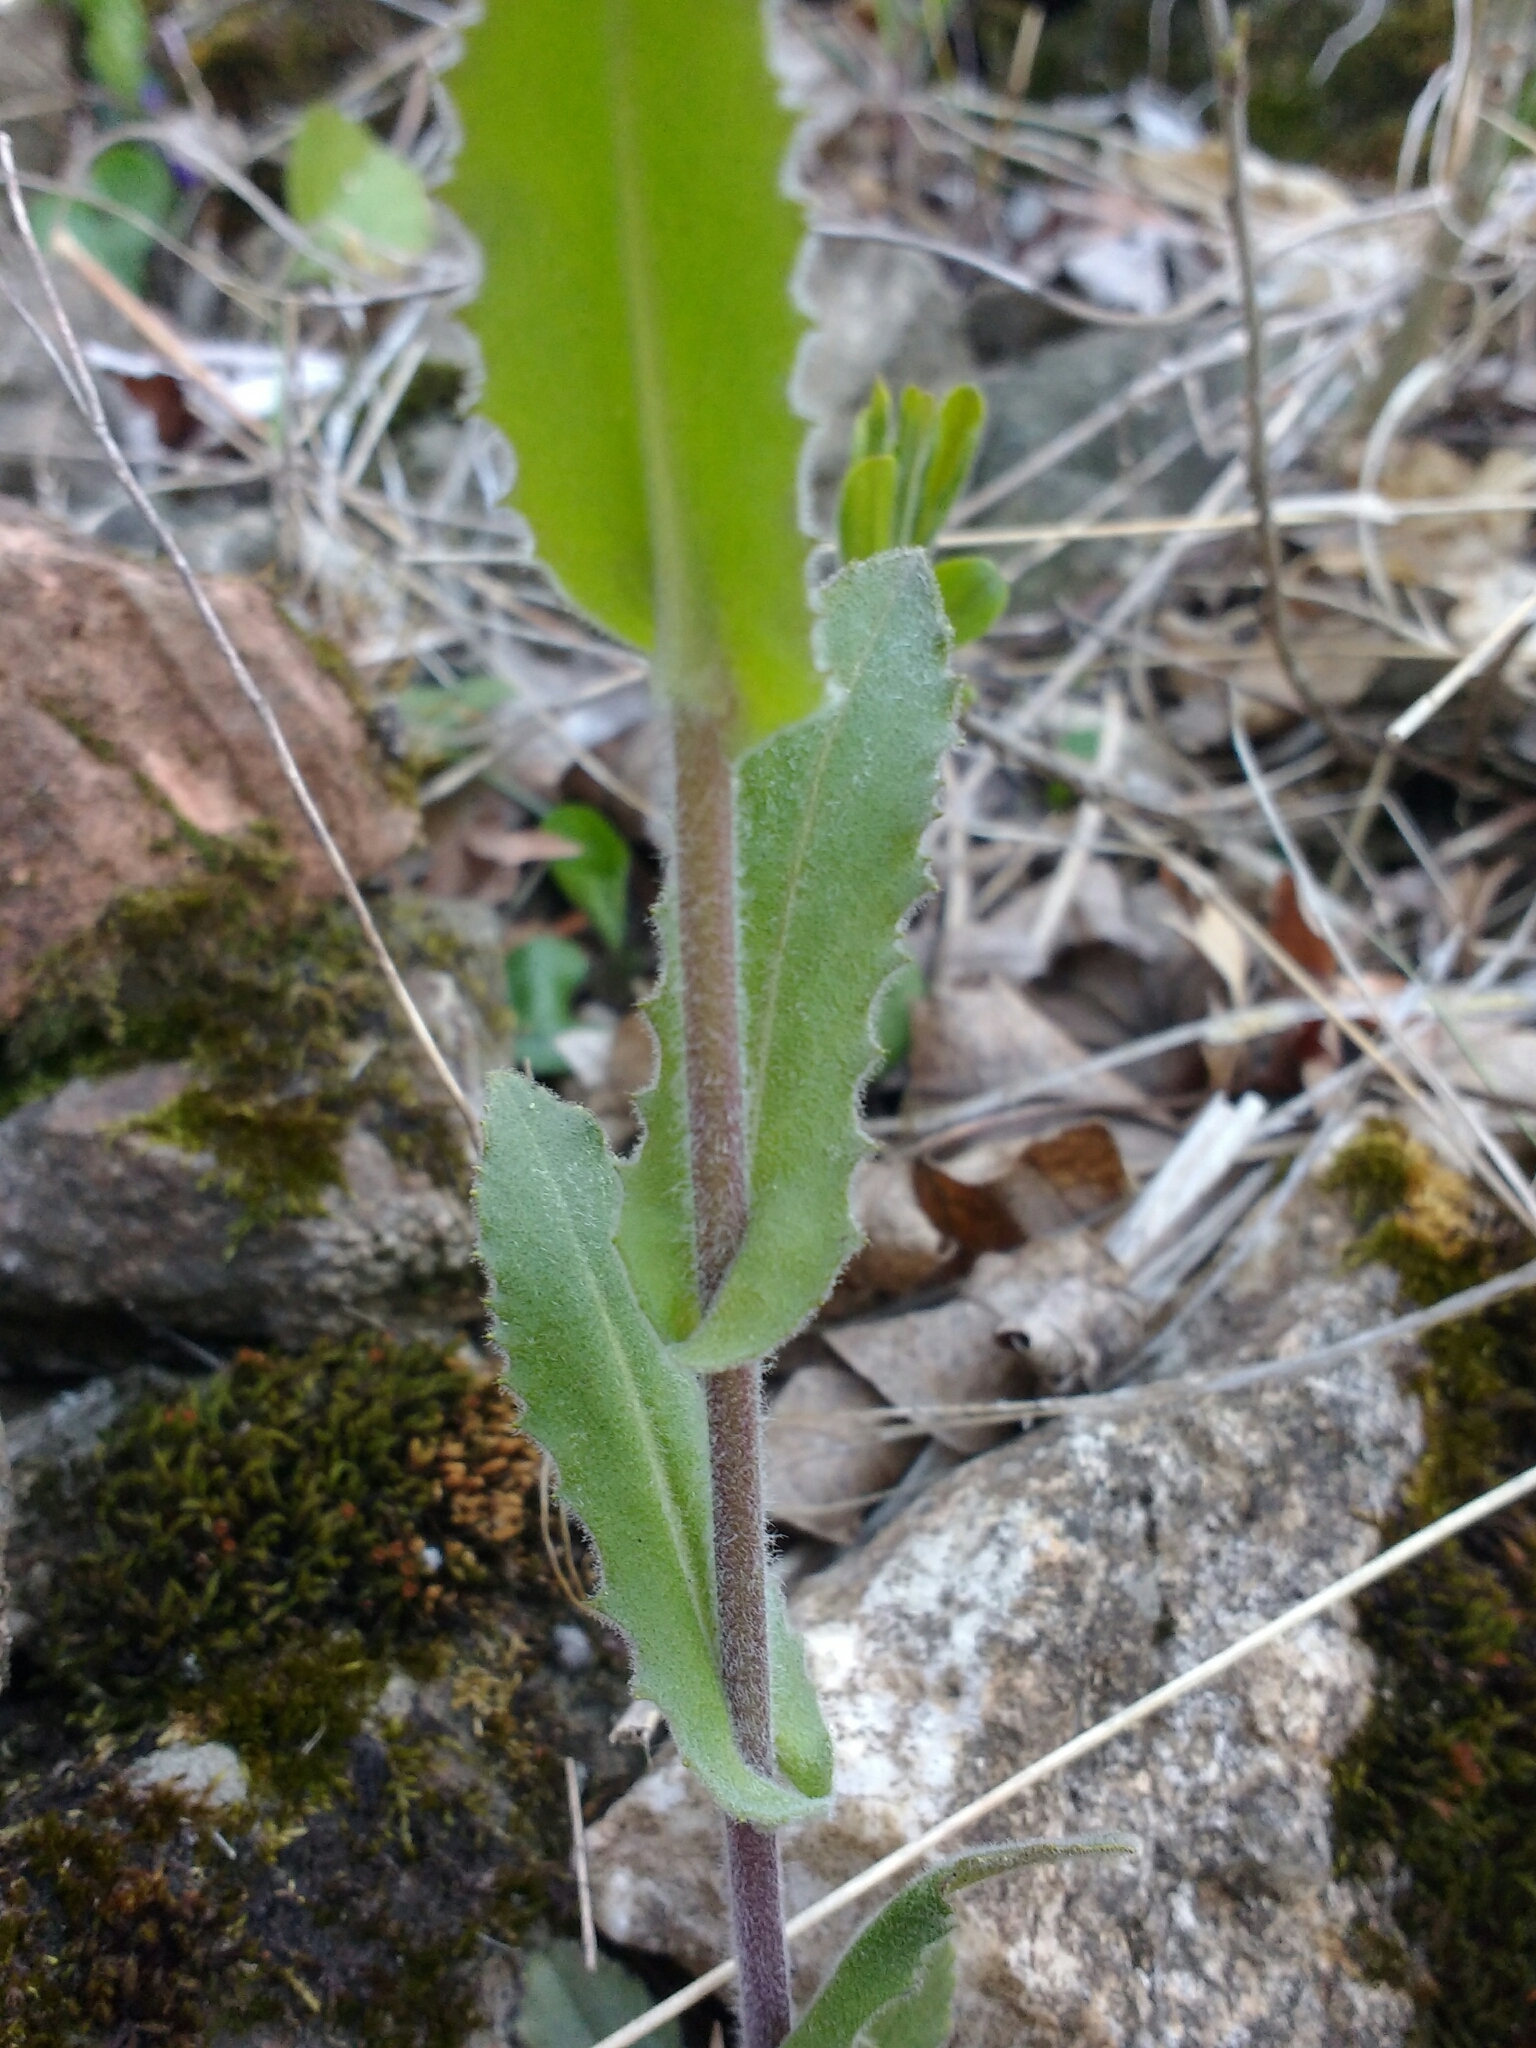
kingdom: Plantae
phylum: Tracheophyta
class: Magnoliopsida
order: Brassicales
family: Brassicaceae
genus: Noccaea
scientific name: Noccaea perfoliata
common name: Perfoliate pennycress
